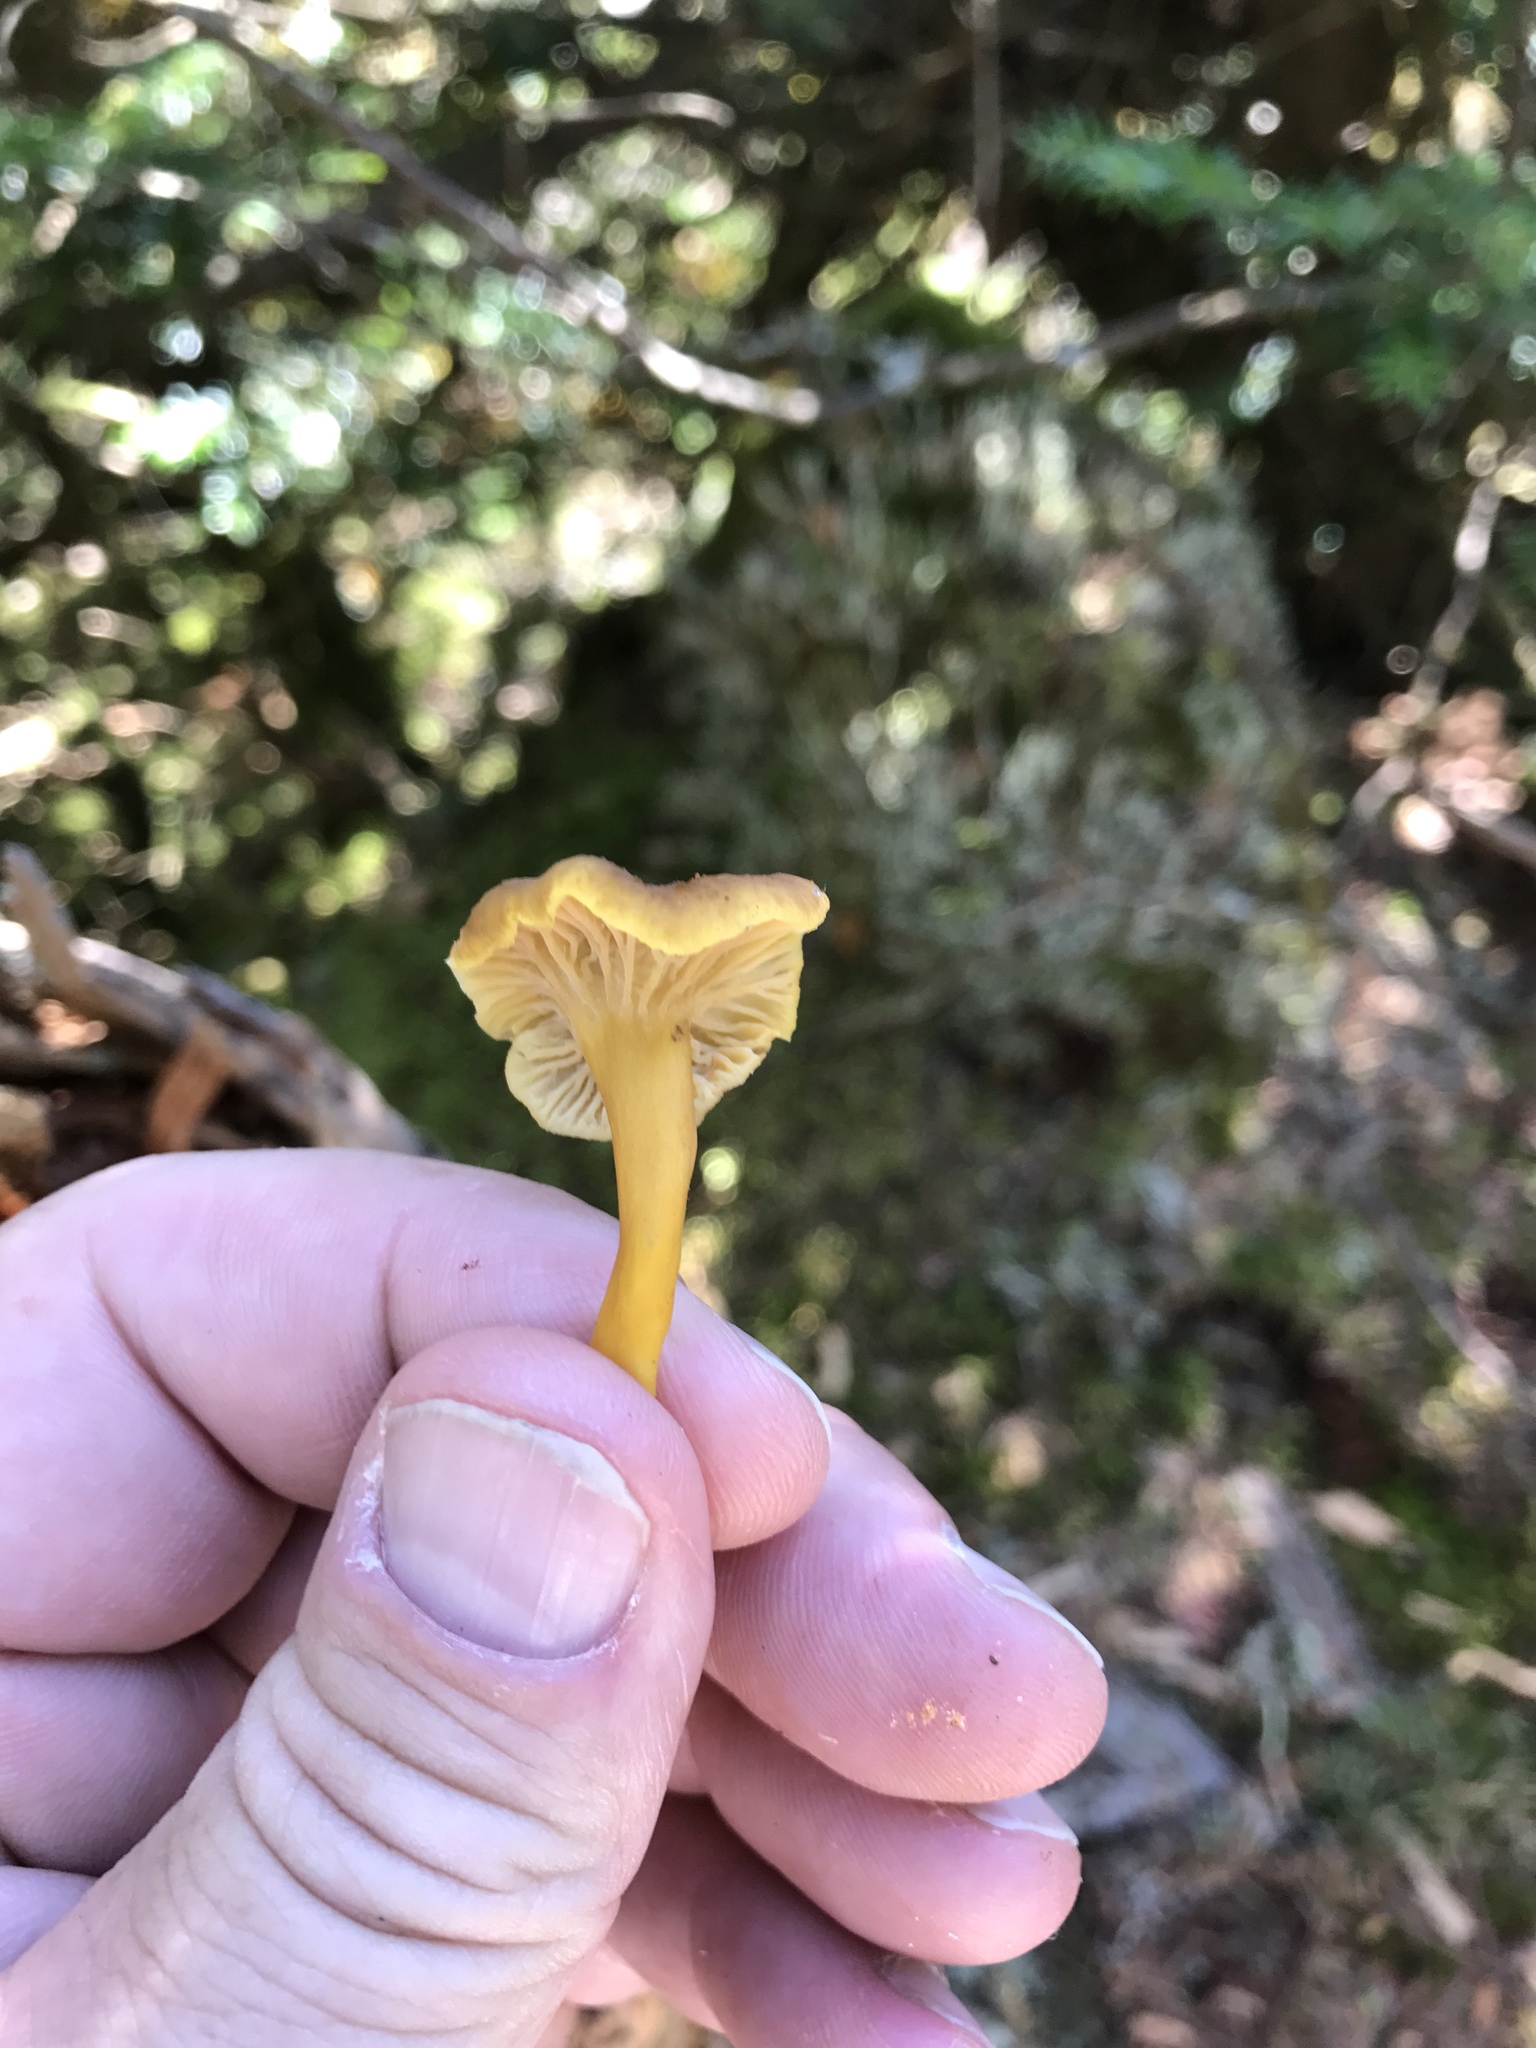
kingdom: Fungi
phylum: Basidiomycota
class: Agaricomycetes
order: Cantharellales
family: Hydnaceae
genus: Craterellus
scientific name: Craterellus tubaeformis
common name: Yellowfoot
